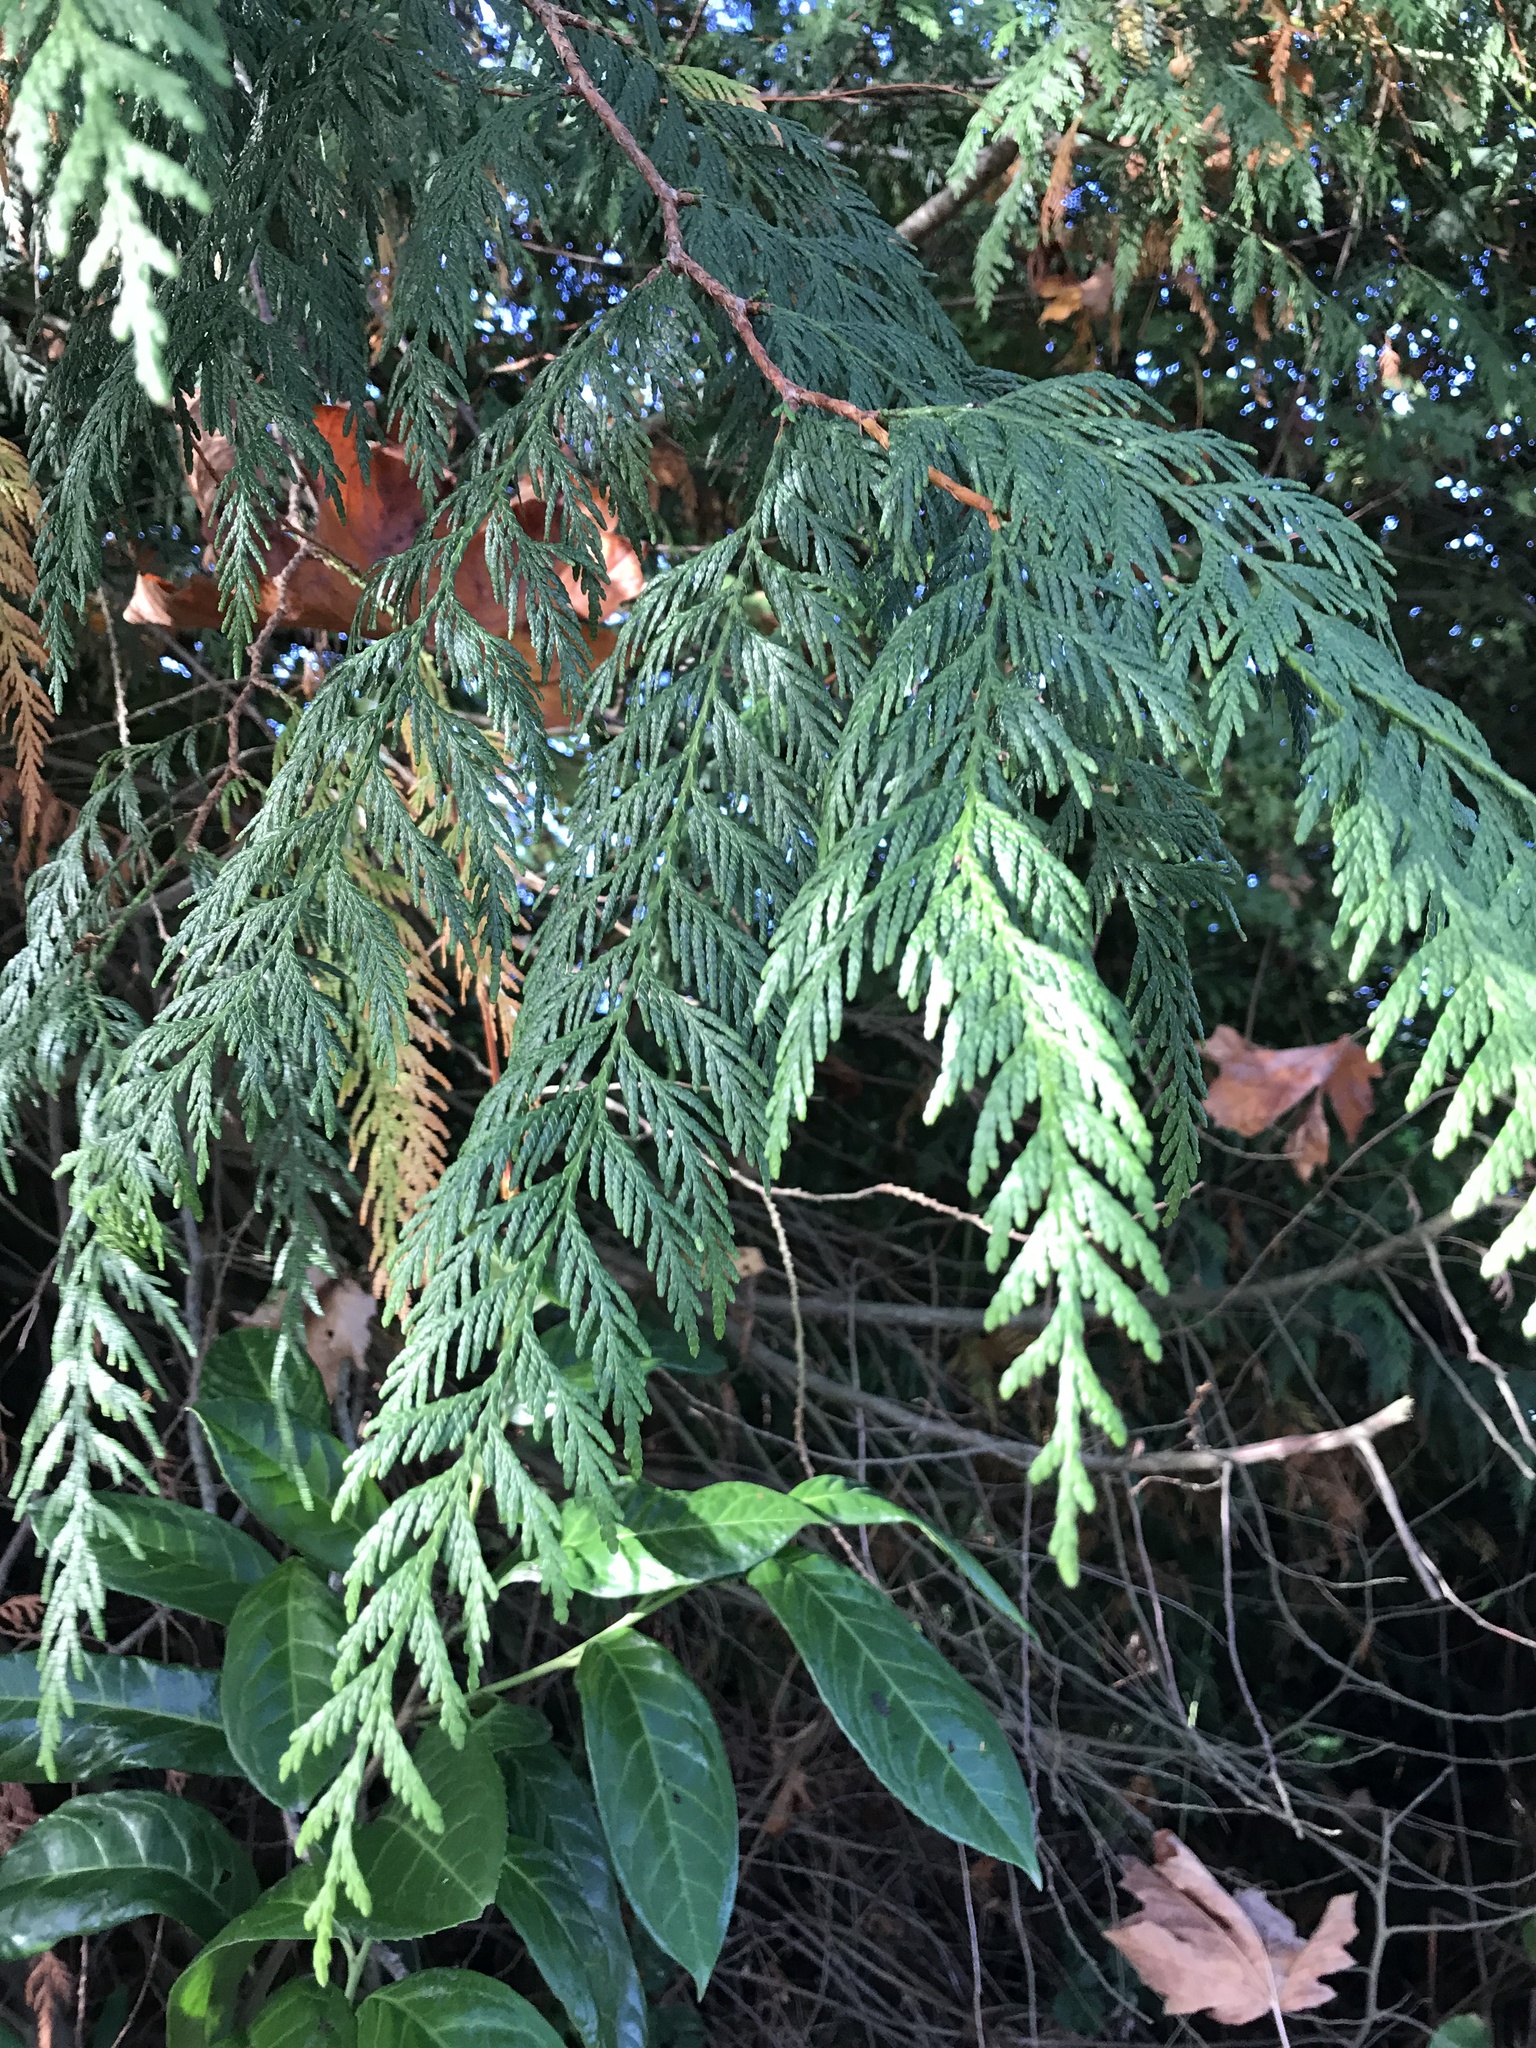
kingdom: Plantae
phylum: Tracheophyta
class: Pinopsida
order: Pinales
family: Cupressaceae
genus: Thuja
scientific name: Thuja plicata
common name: Western red-cedar
